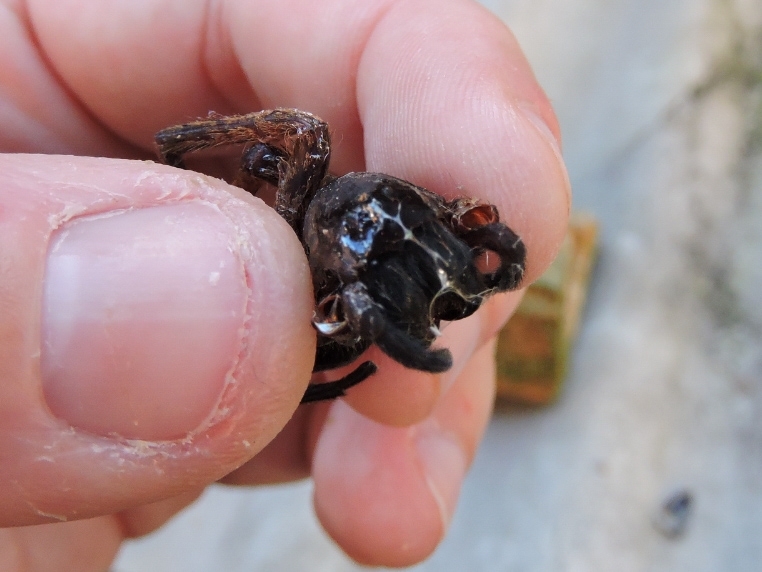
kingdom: Animalia
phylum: Arthropoda
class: Arachnida
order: Araneae
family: Ctenidae
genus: Ctenus
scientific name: Ctenus medius
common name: Wandering spiders
